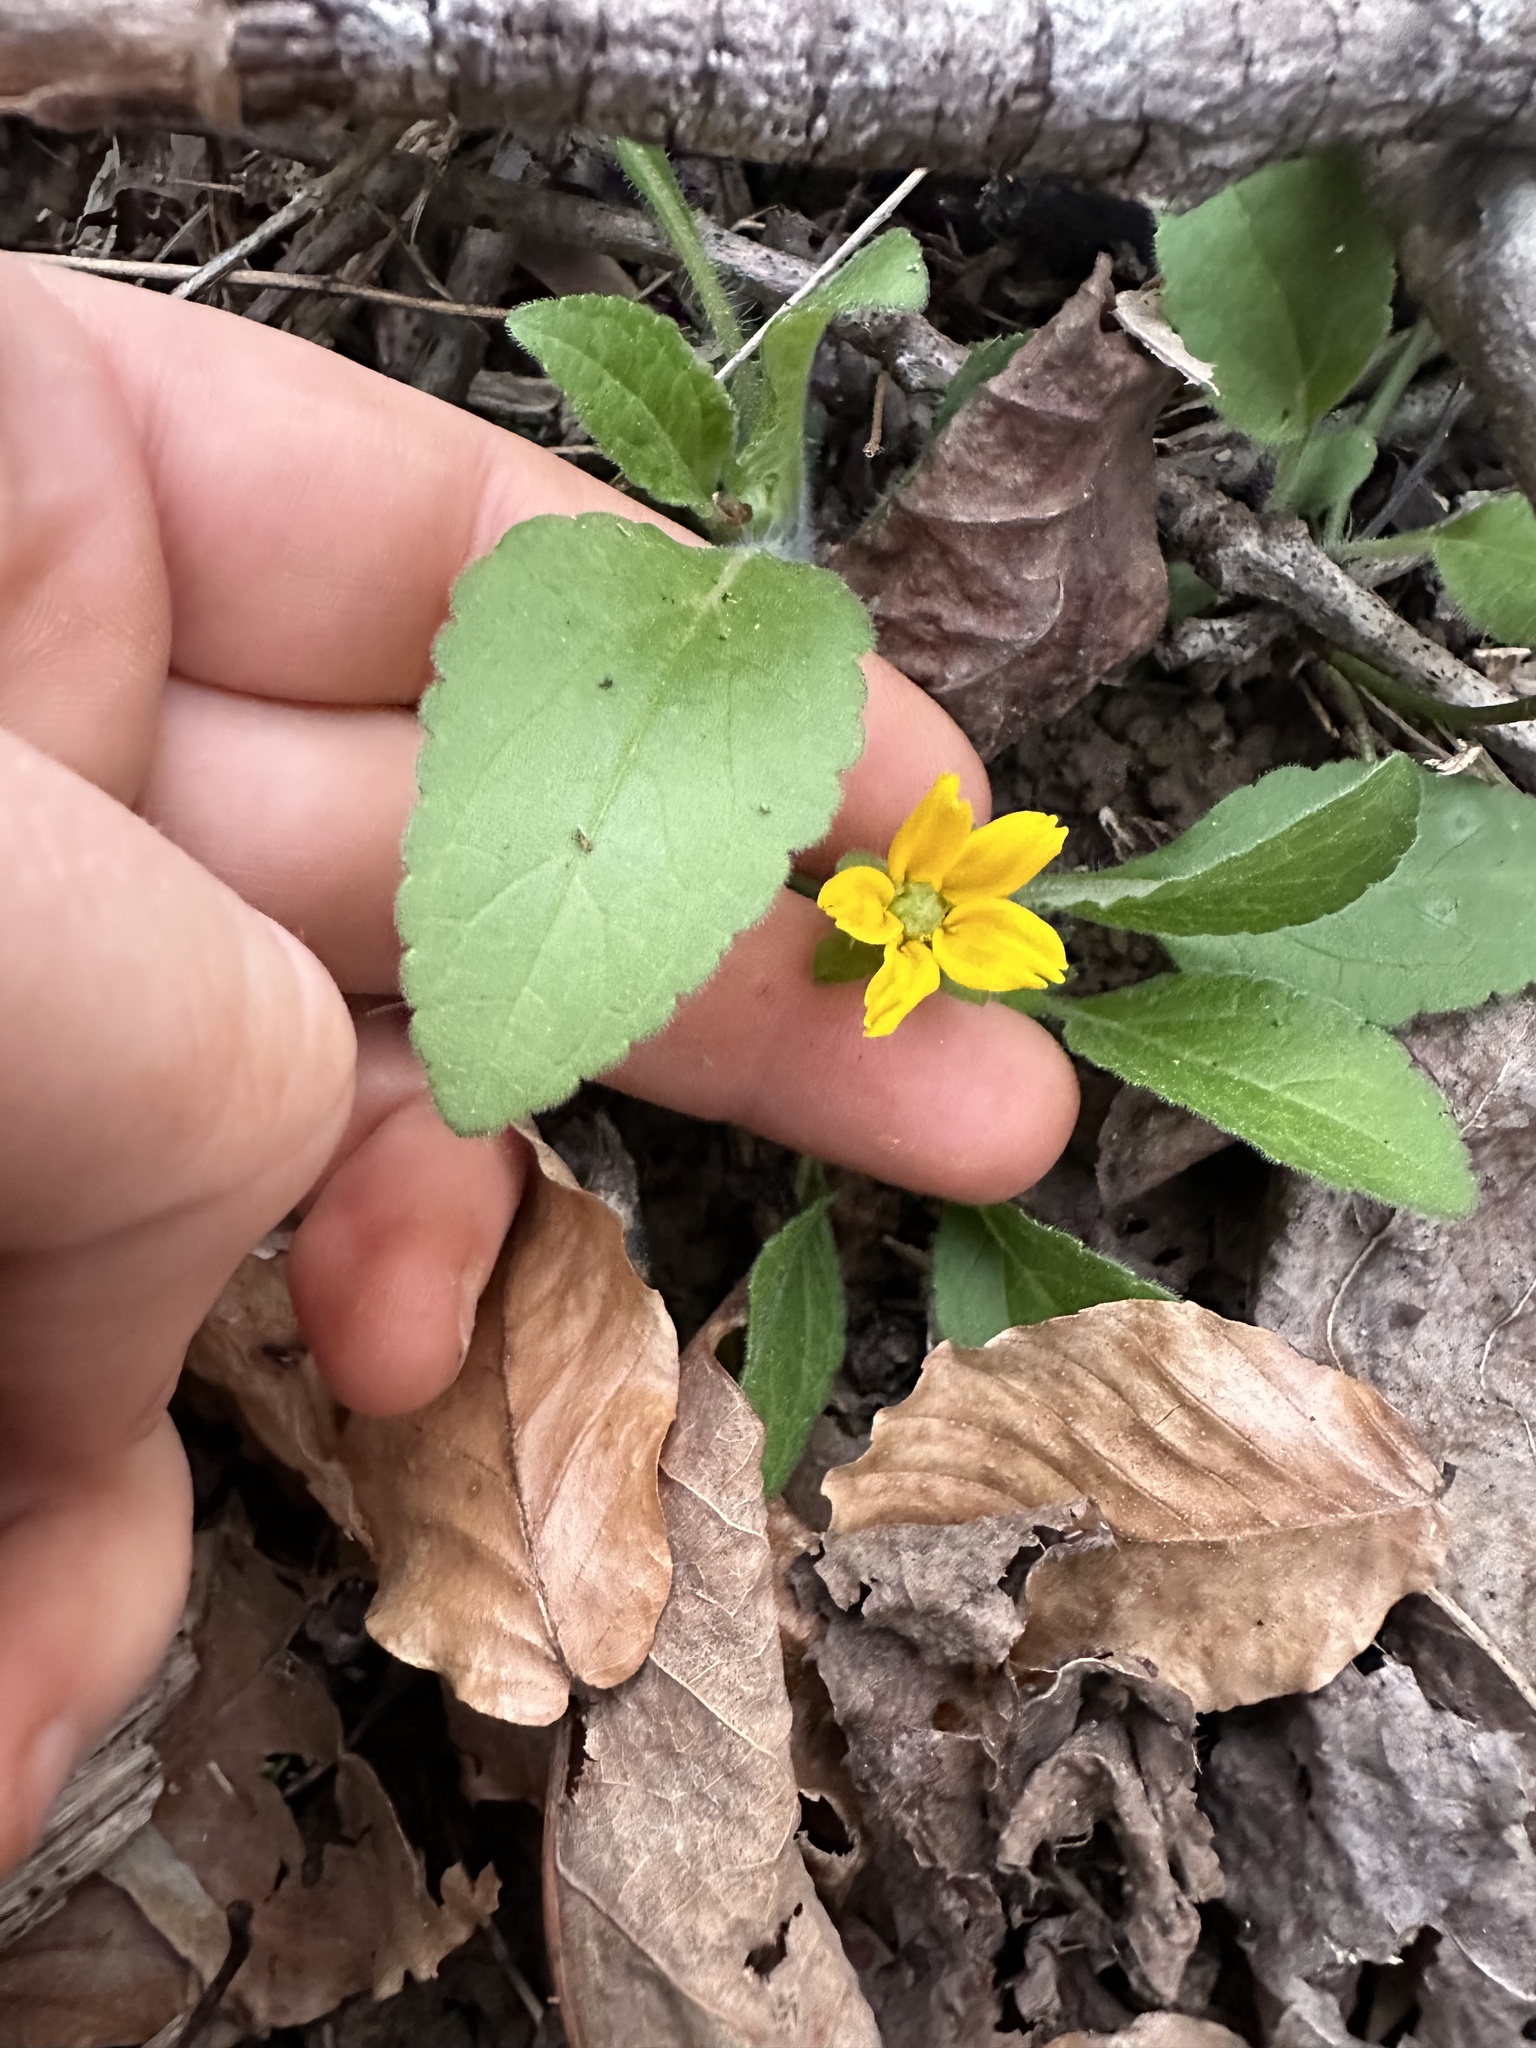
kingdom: Plantae
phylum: Tracheophyta
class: Magnoliopsida
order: Asterales
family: Asteraceae
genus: Chrysogonum
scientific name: Chrysogonum virginianum
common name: Golden-knee
